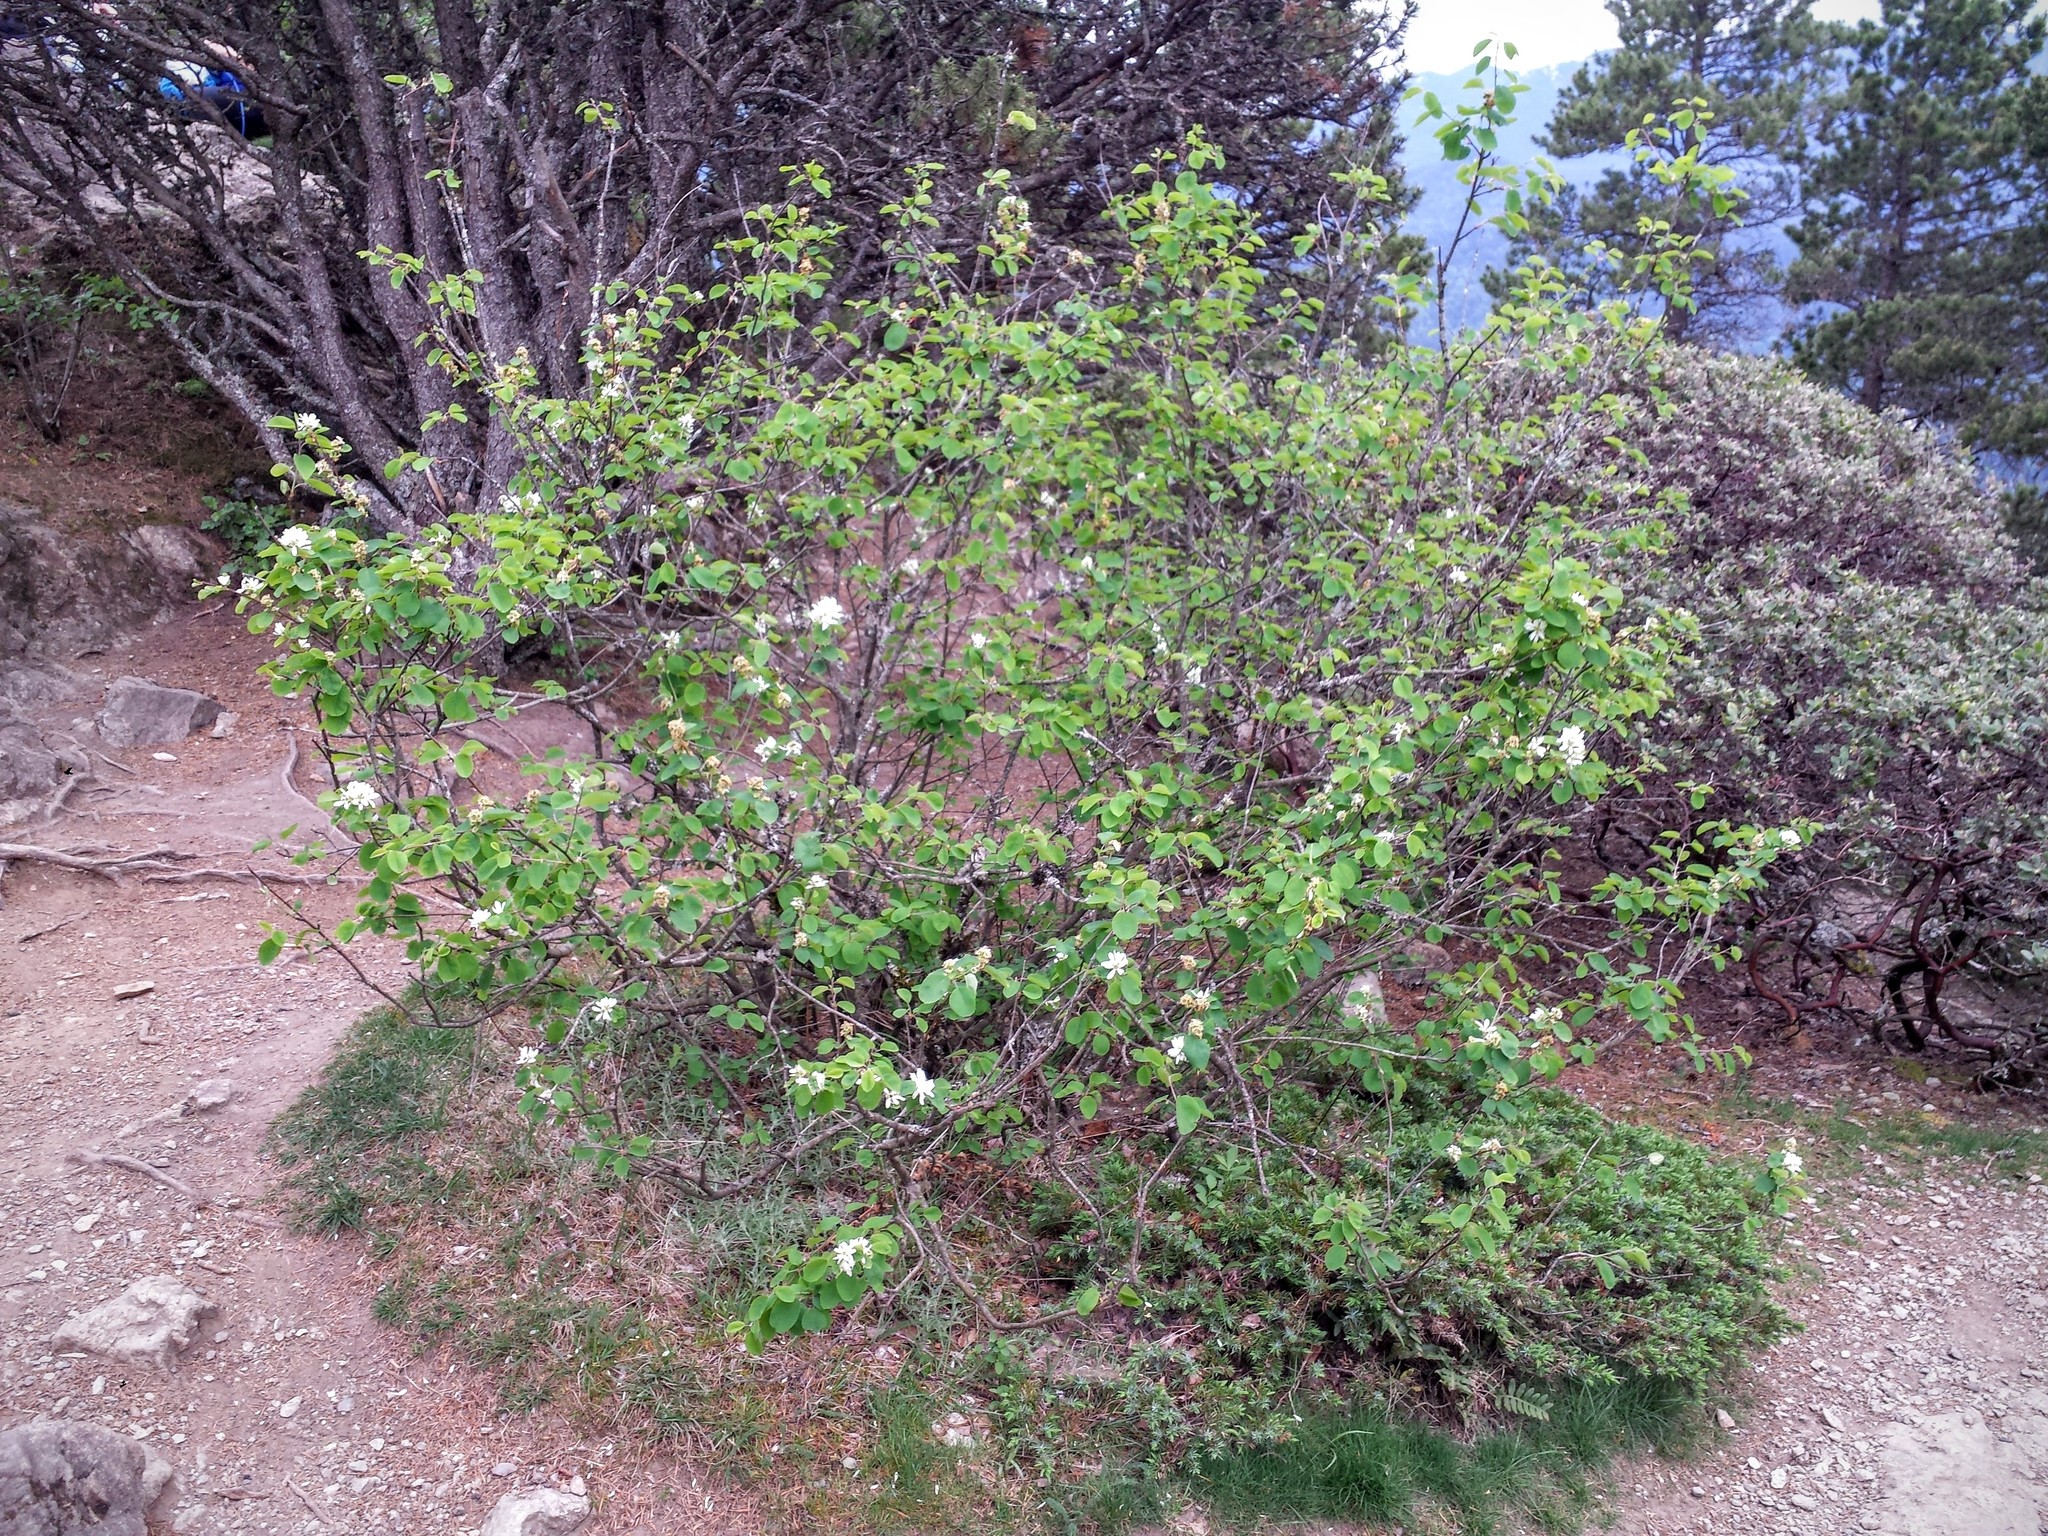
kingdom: Plantae
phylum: Tracheophyta
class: Magnoliopsida
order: Rosales
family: Rosaceae
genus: Amelanchier
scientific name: Amelanchier alnifolia
